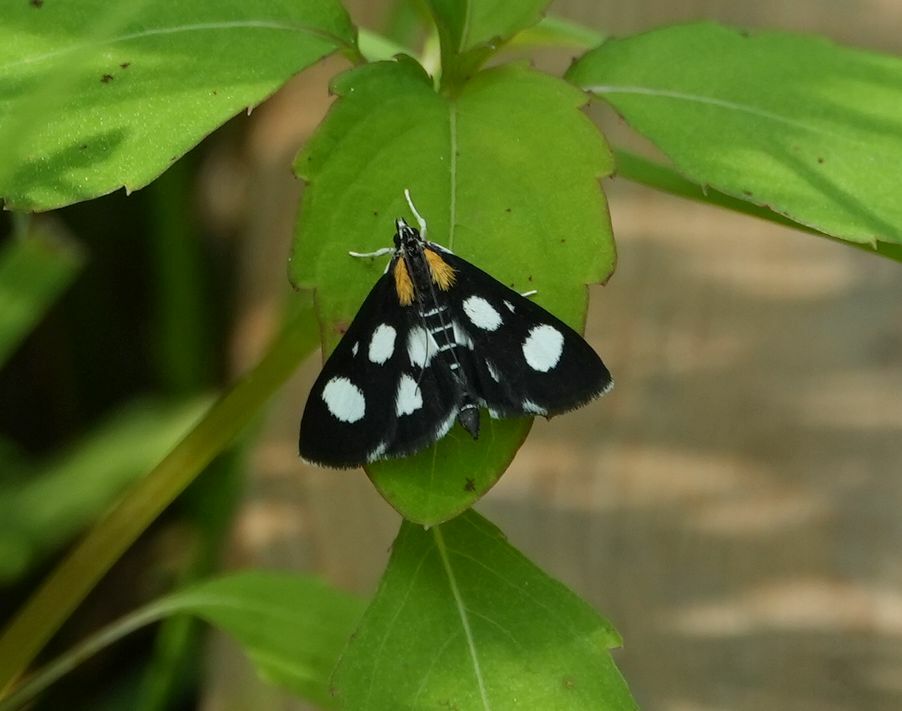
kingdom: Animalia
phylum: Arthropoda
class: Insecta
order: Lepidoptera
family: Crambidae
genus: Anania
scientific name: Anania funebris
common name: White-spotted sable moth
